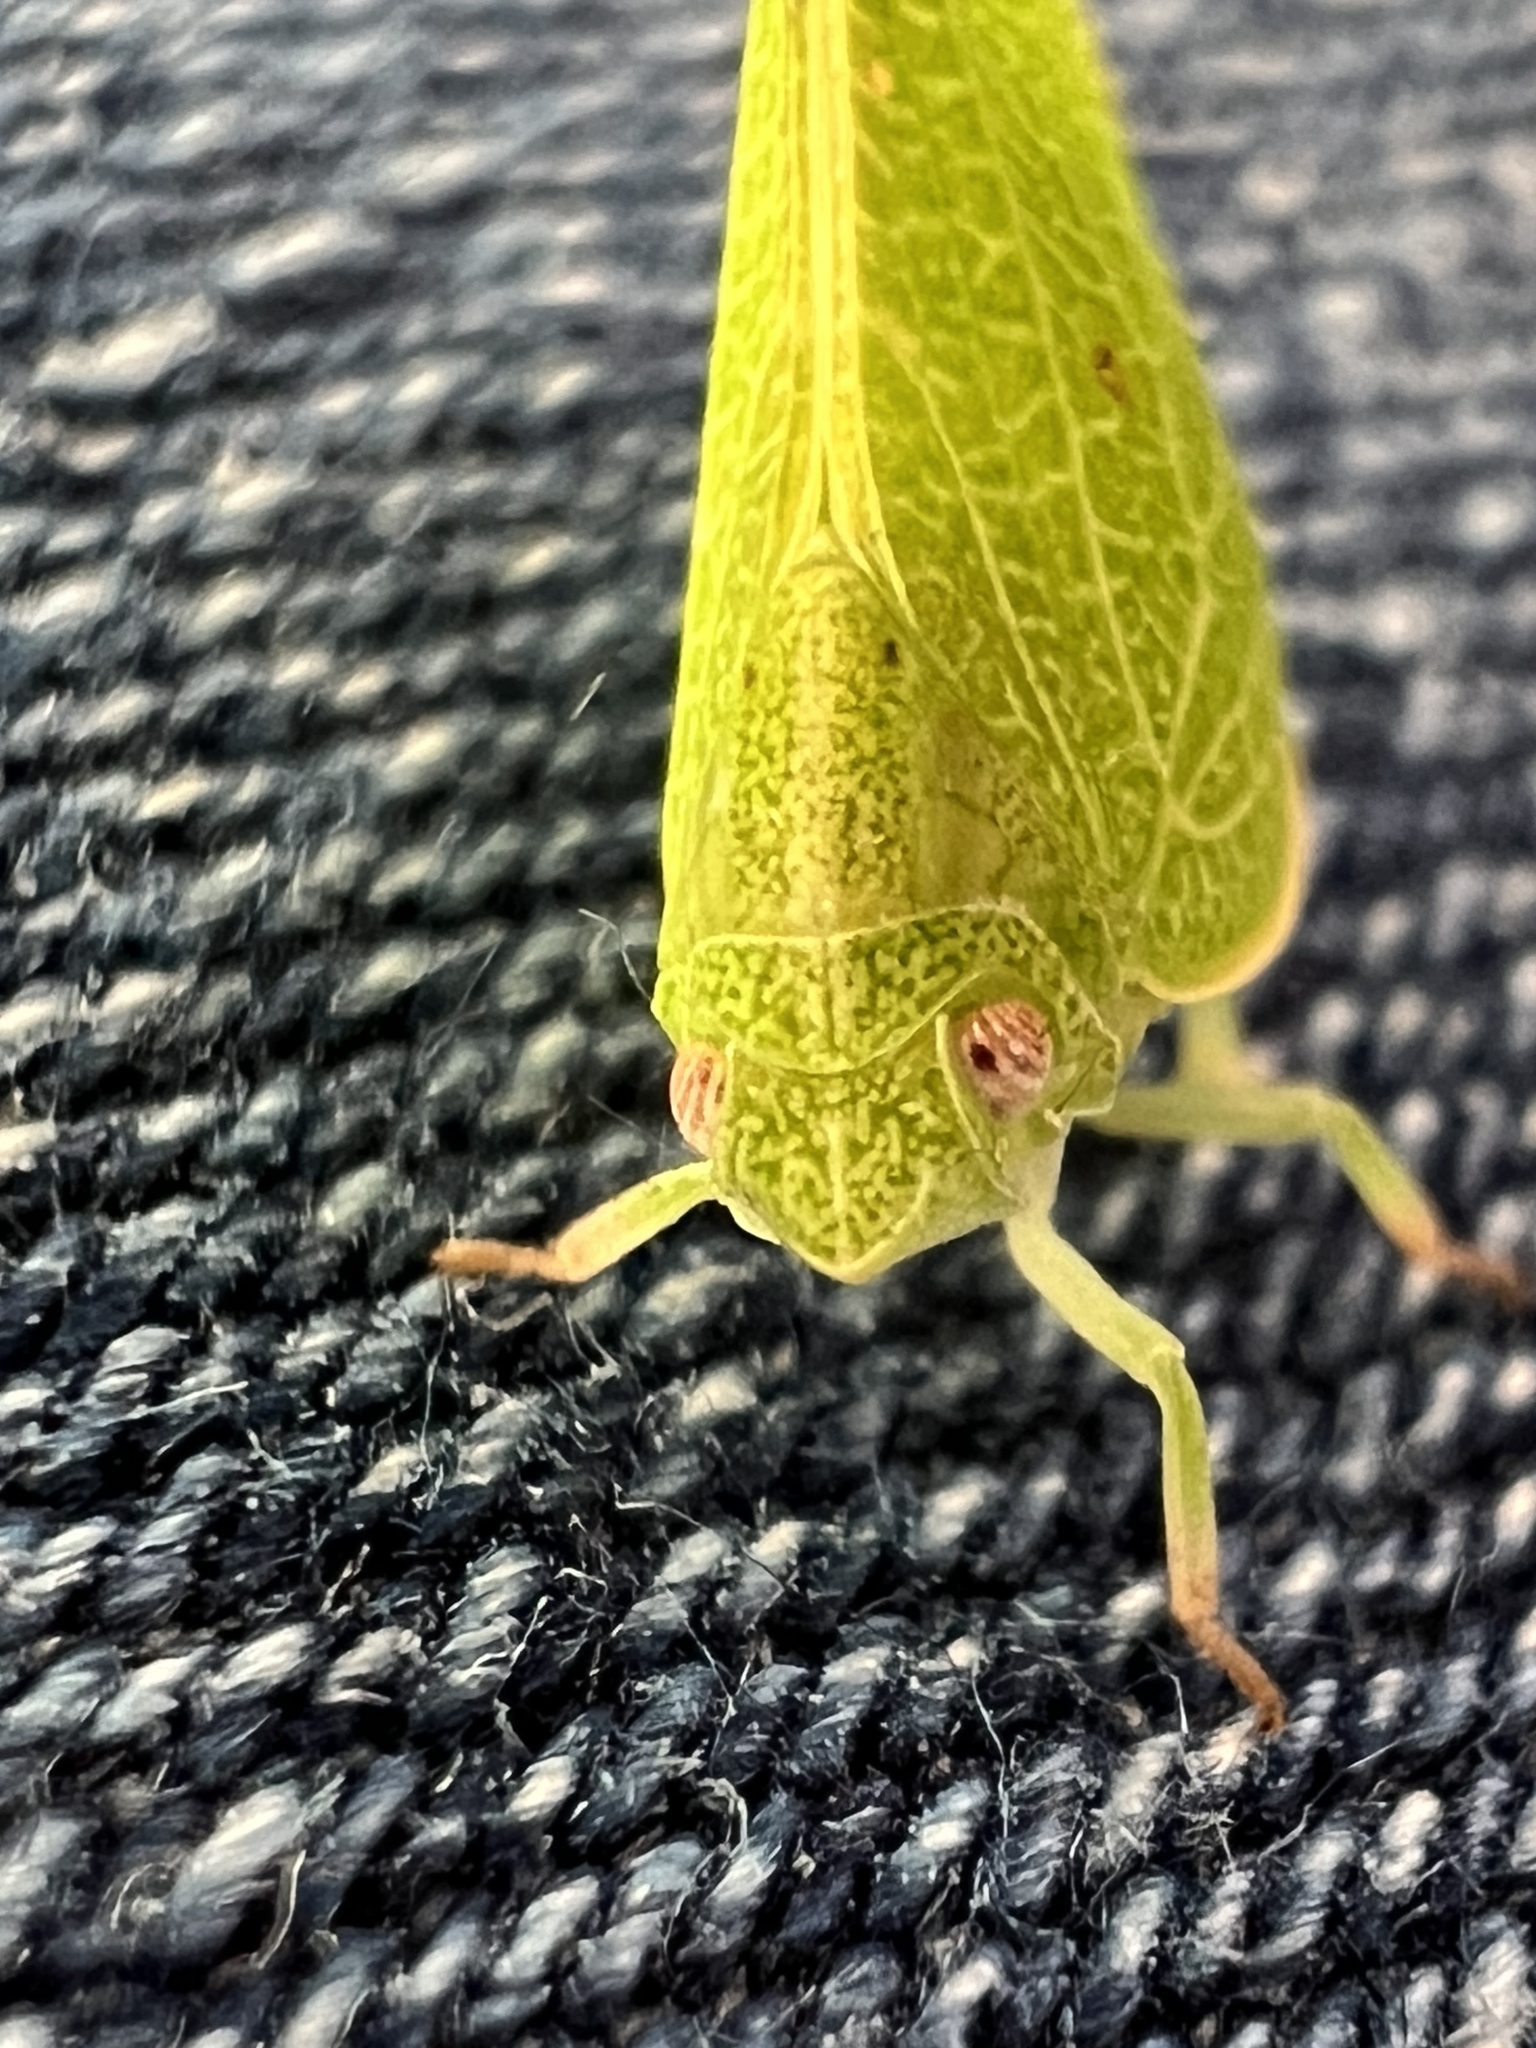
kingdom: Animalia
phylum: Arthropoda
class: Insecta
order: Hemiptera
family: Acanaloniidae
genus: Acanalonia
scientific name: Acanalonia conica
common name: Green cone-headed planthopper
